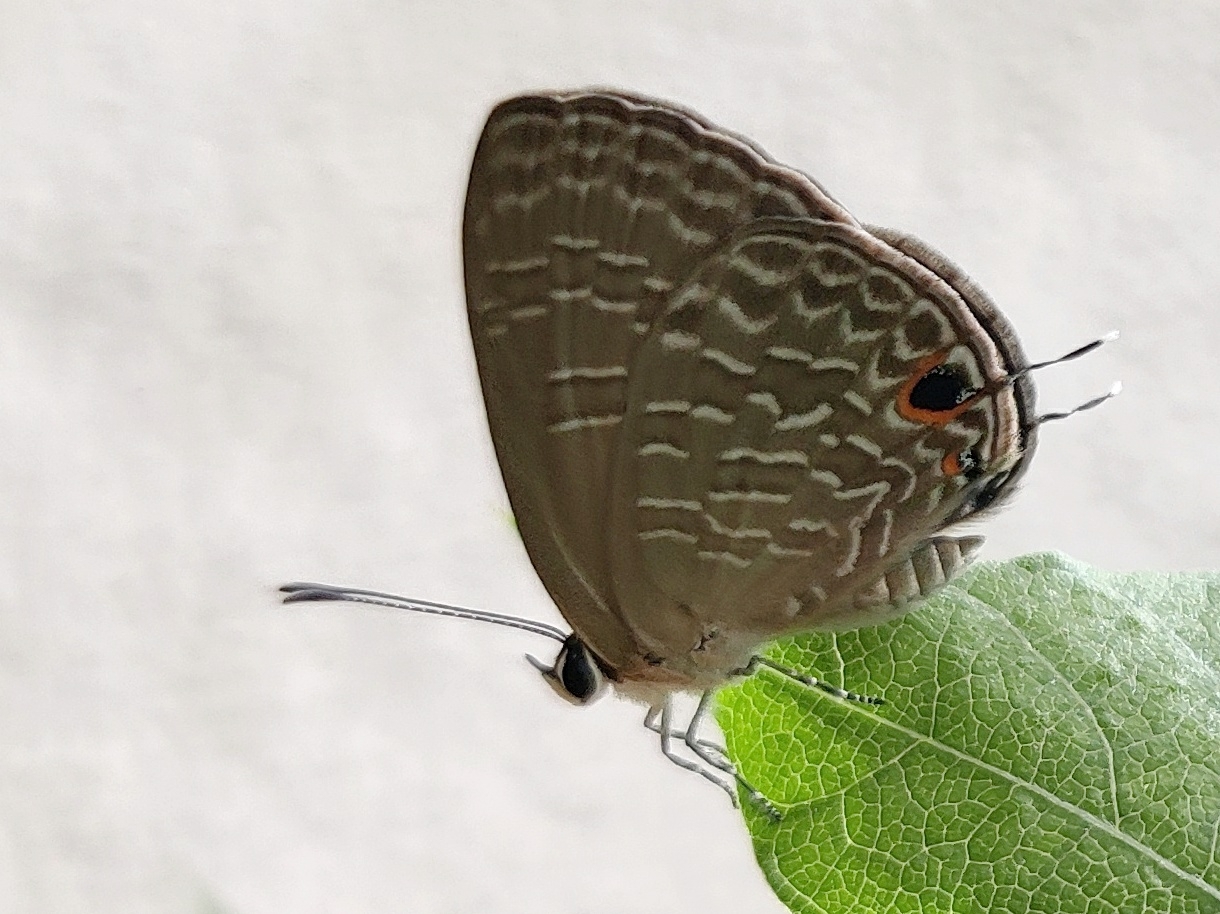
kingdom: Animalia
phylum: Arthropoda
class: Insecta
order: Lepidoptera
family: Lycaenidae
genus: Jamides
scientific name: Jamides bochus
